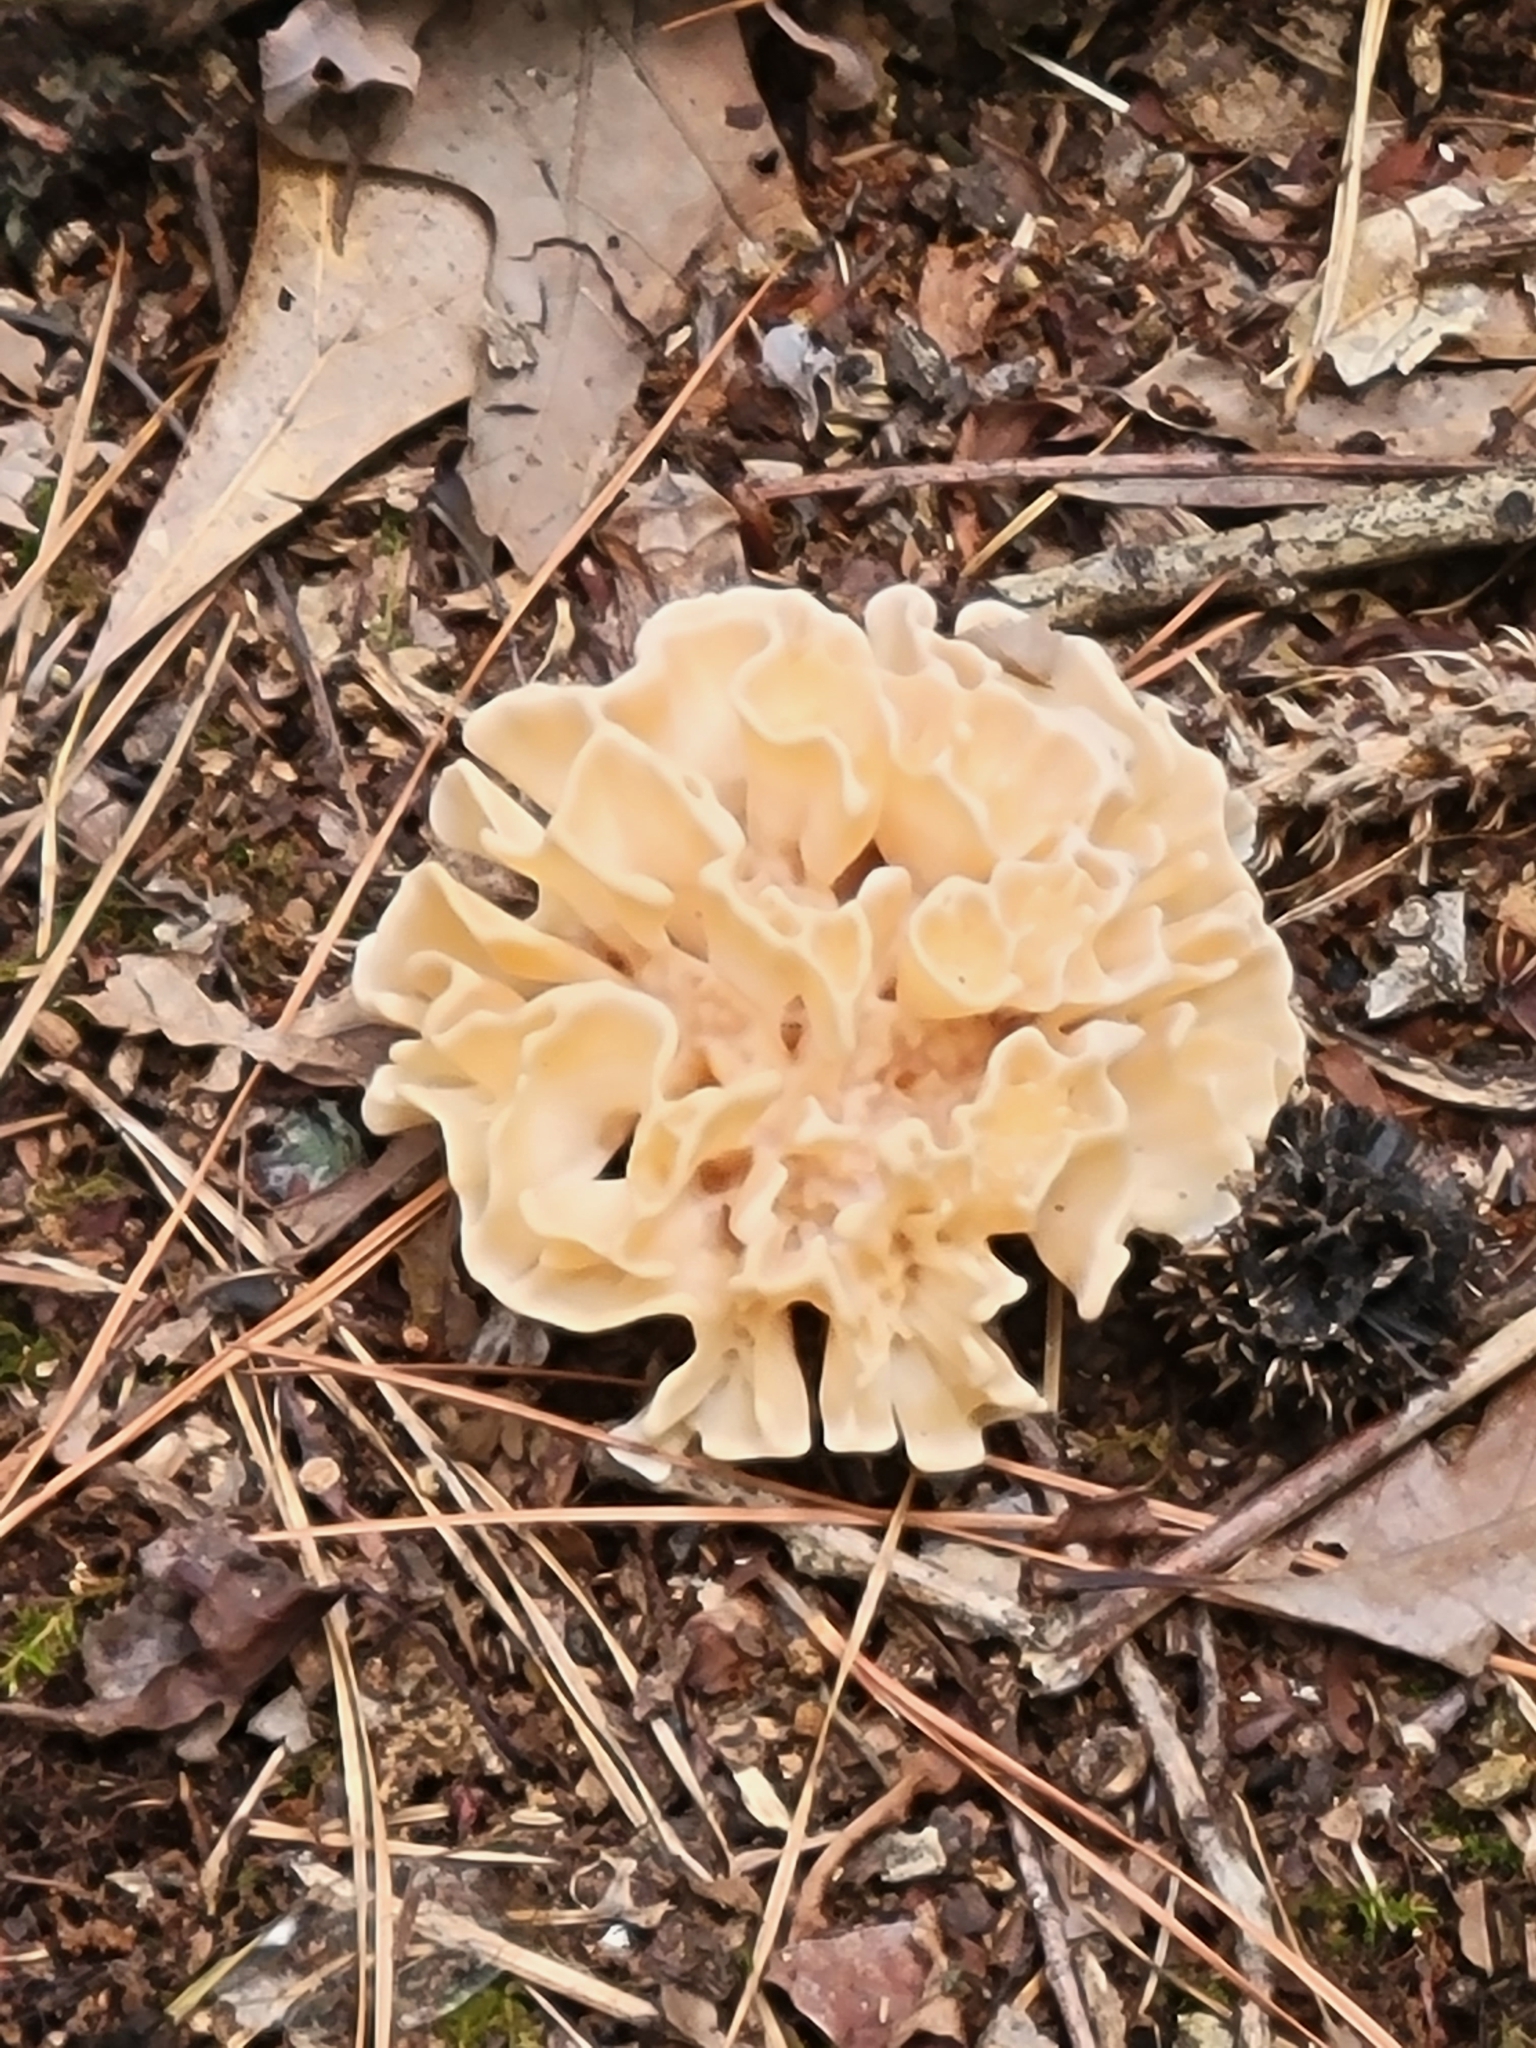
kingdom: Fungi
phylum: Basidiomycota
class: Agaricomycetes
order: Polyporales
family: Sparassidaceae
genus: Sparassis
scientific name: Sparassis spathulata
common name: Eastern cauliflower mushroom
